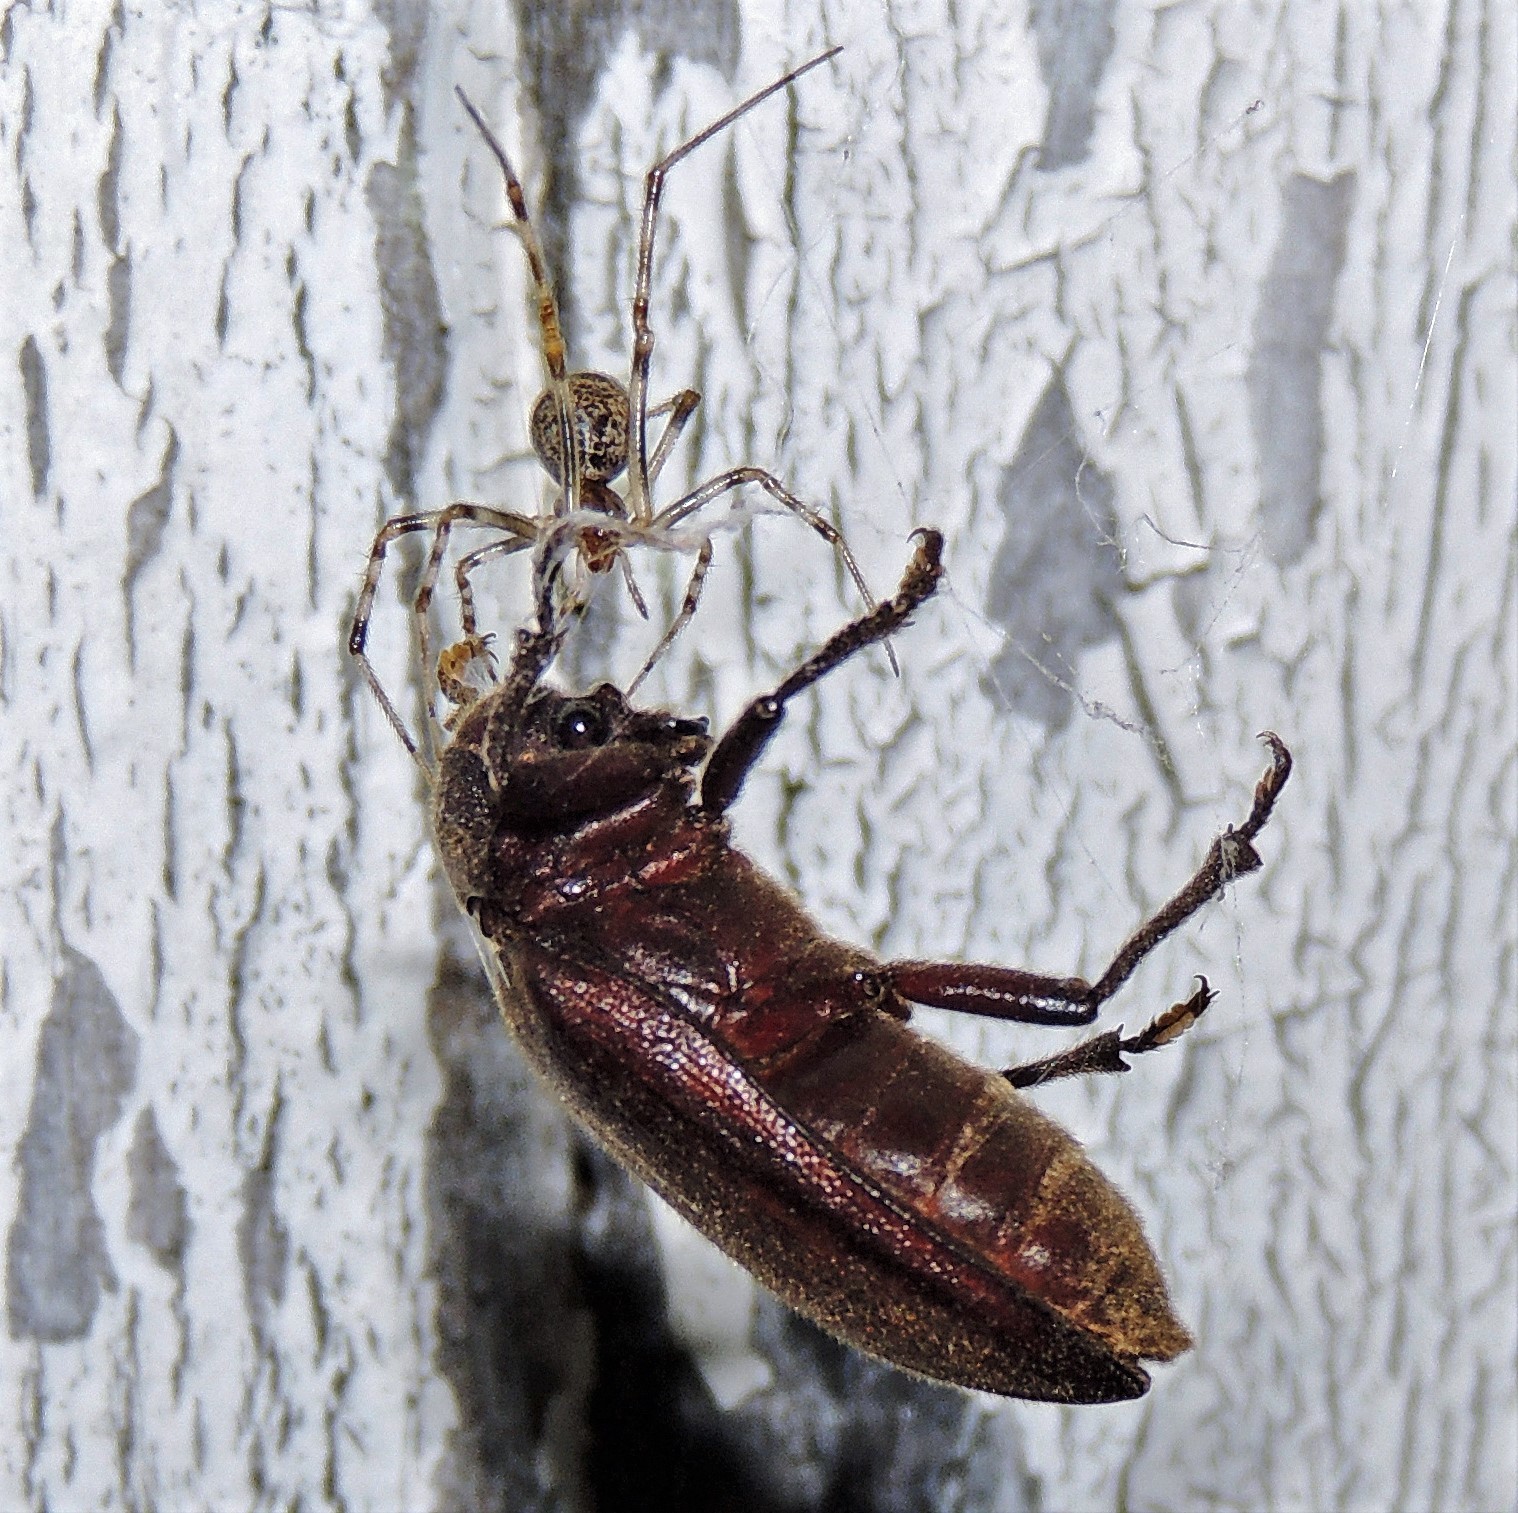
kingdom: Animalia
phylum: Arthropoda
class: Arachnida
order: Araneae
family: Theridiidae
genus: Parasteatoda
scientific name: Parasteatoda tepidariorum
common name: Common house spider
